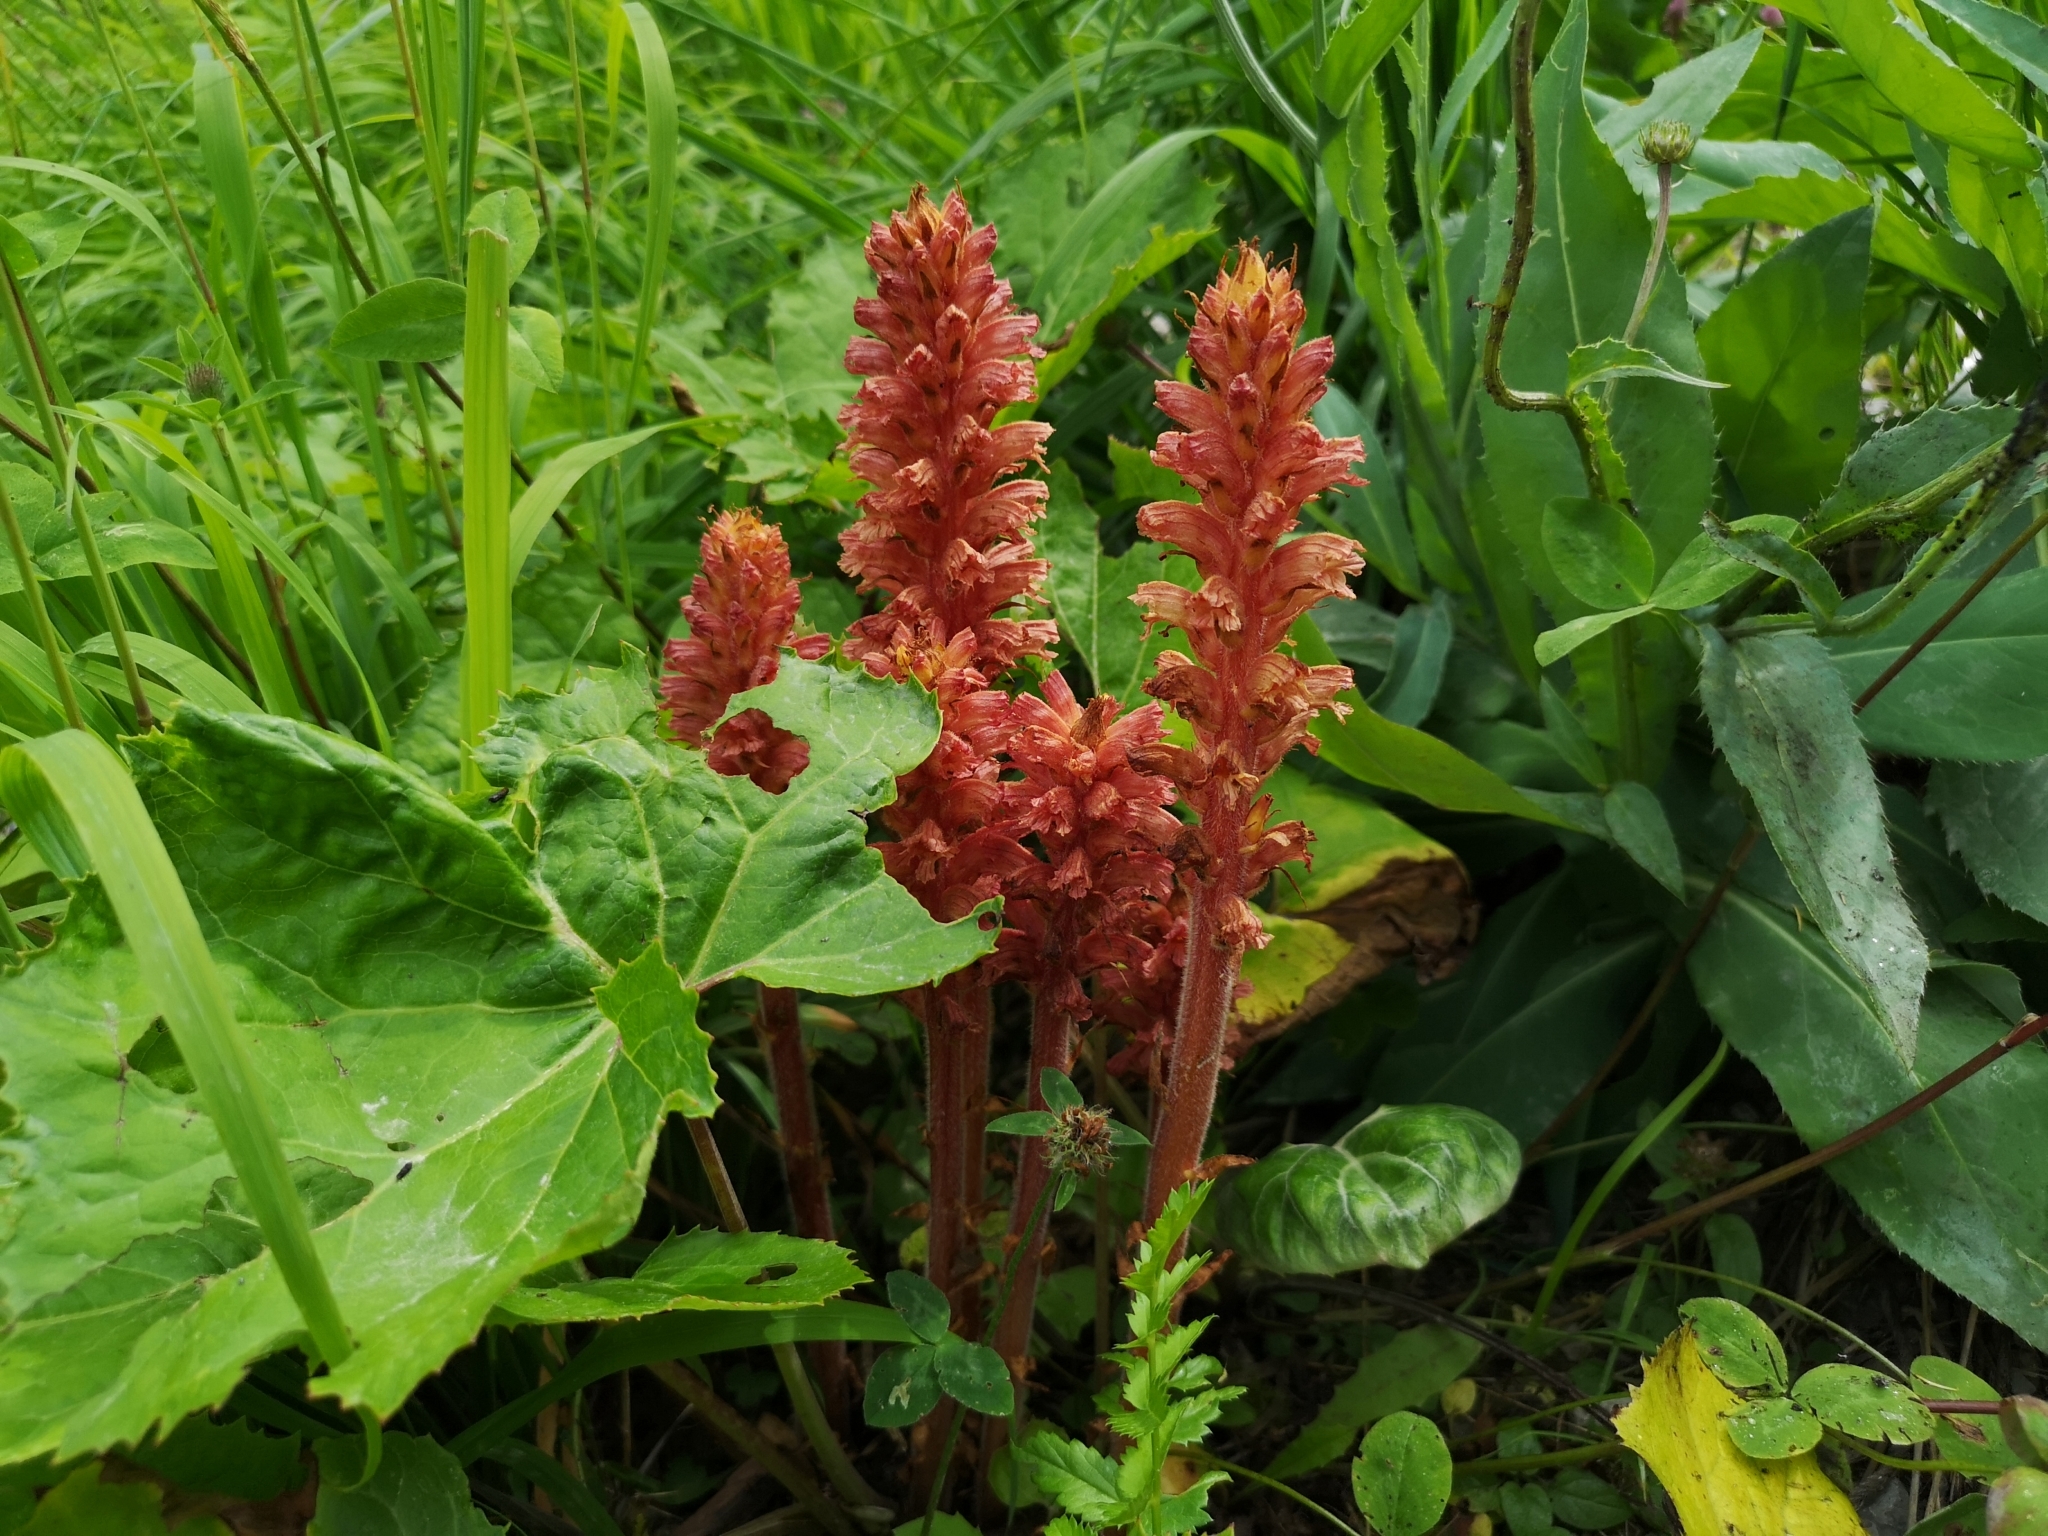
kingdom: Plantae
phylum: Tracheophyta
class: Magnoliopsida
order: Lamiales
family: Orobanchaceae
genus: Orobanche
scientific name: Orobanche flava
